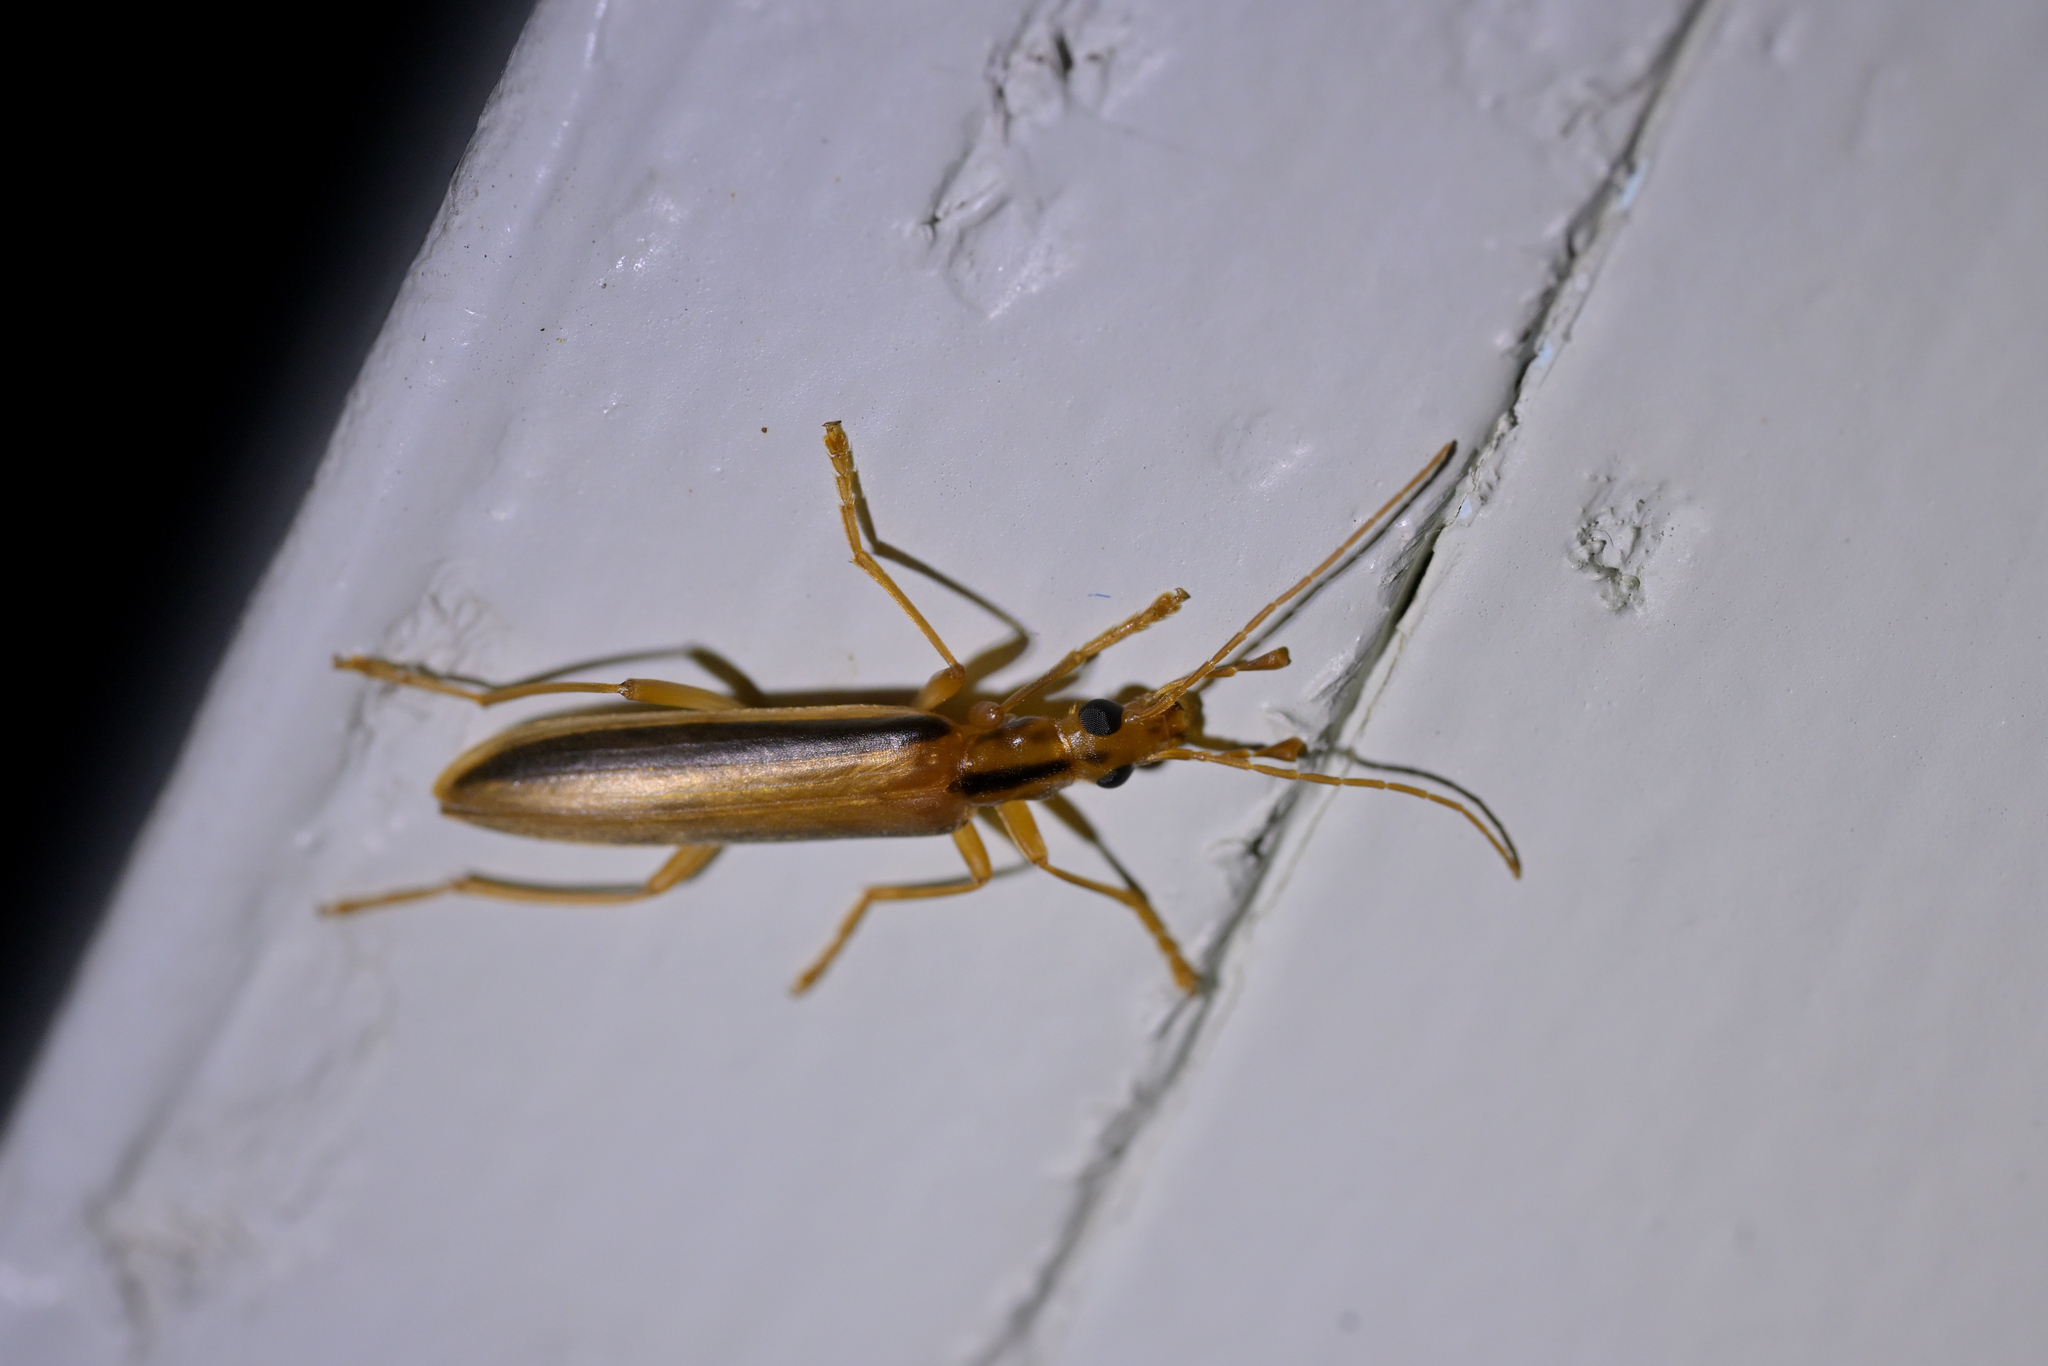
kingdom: Animalia
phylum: Arthropoda
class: Insecta
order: Coleoptera
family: Oedemeridae
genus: Thelyphassa
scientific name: Thelyphassa
